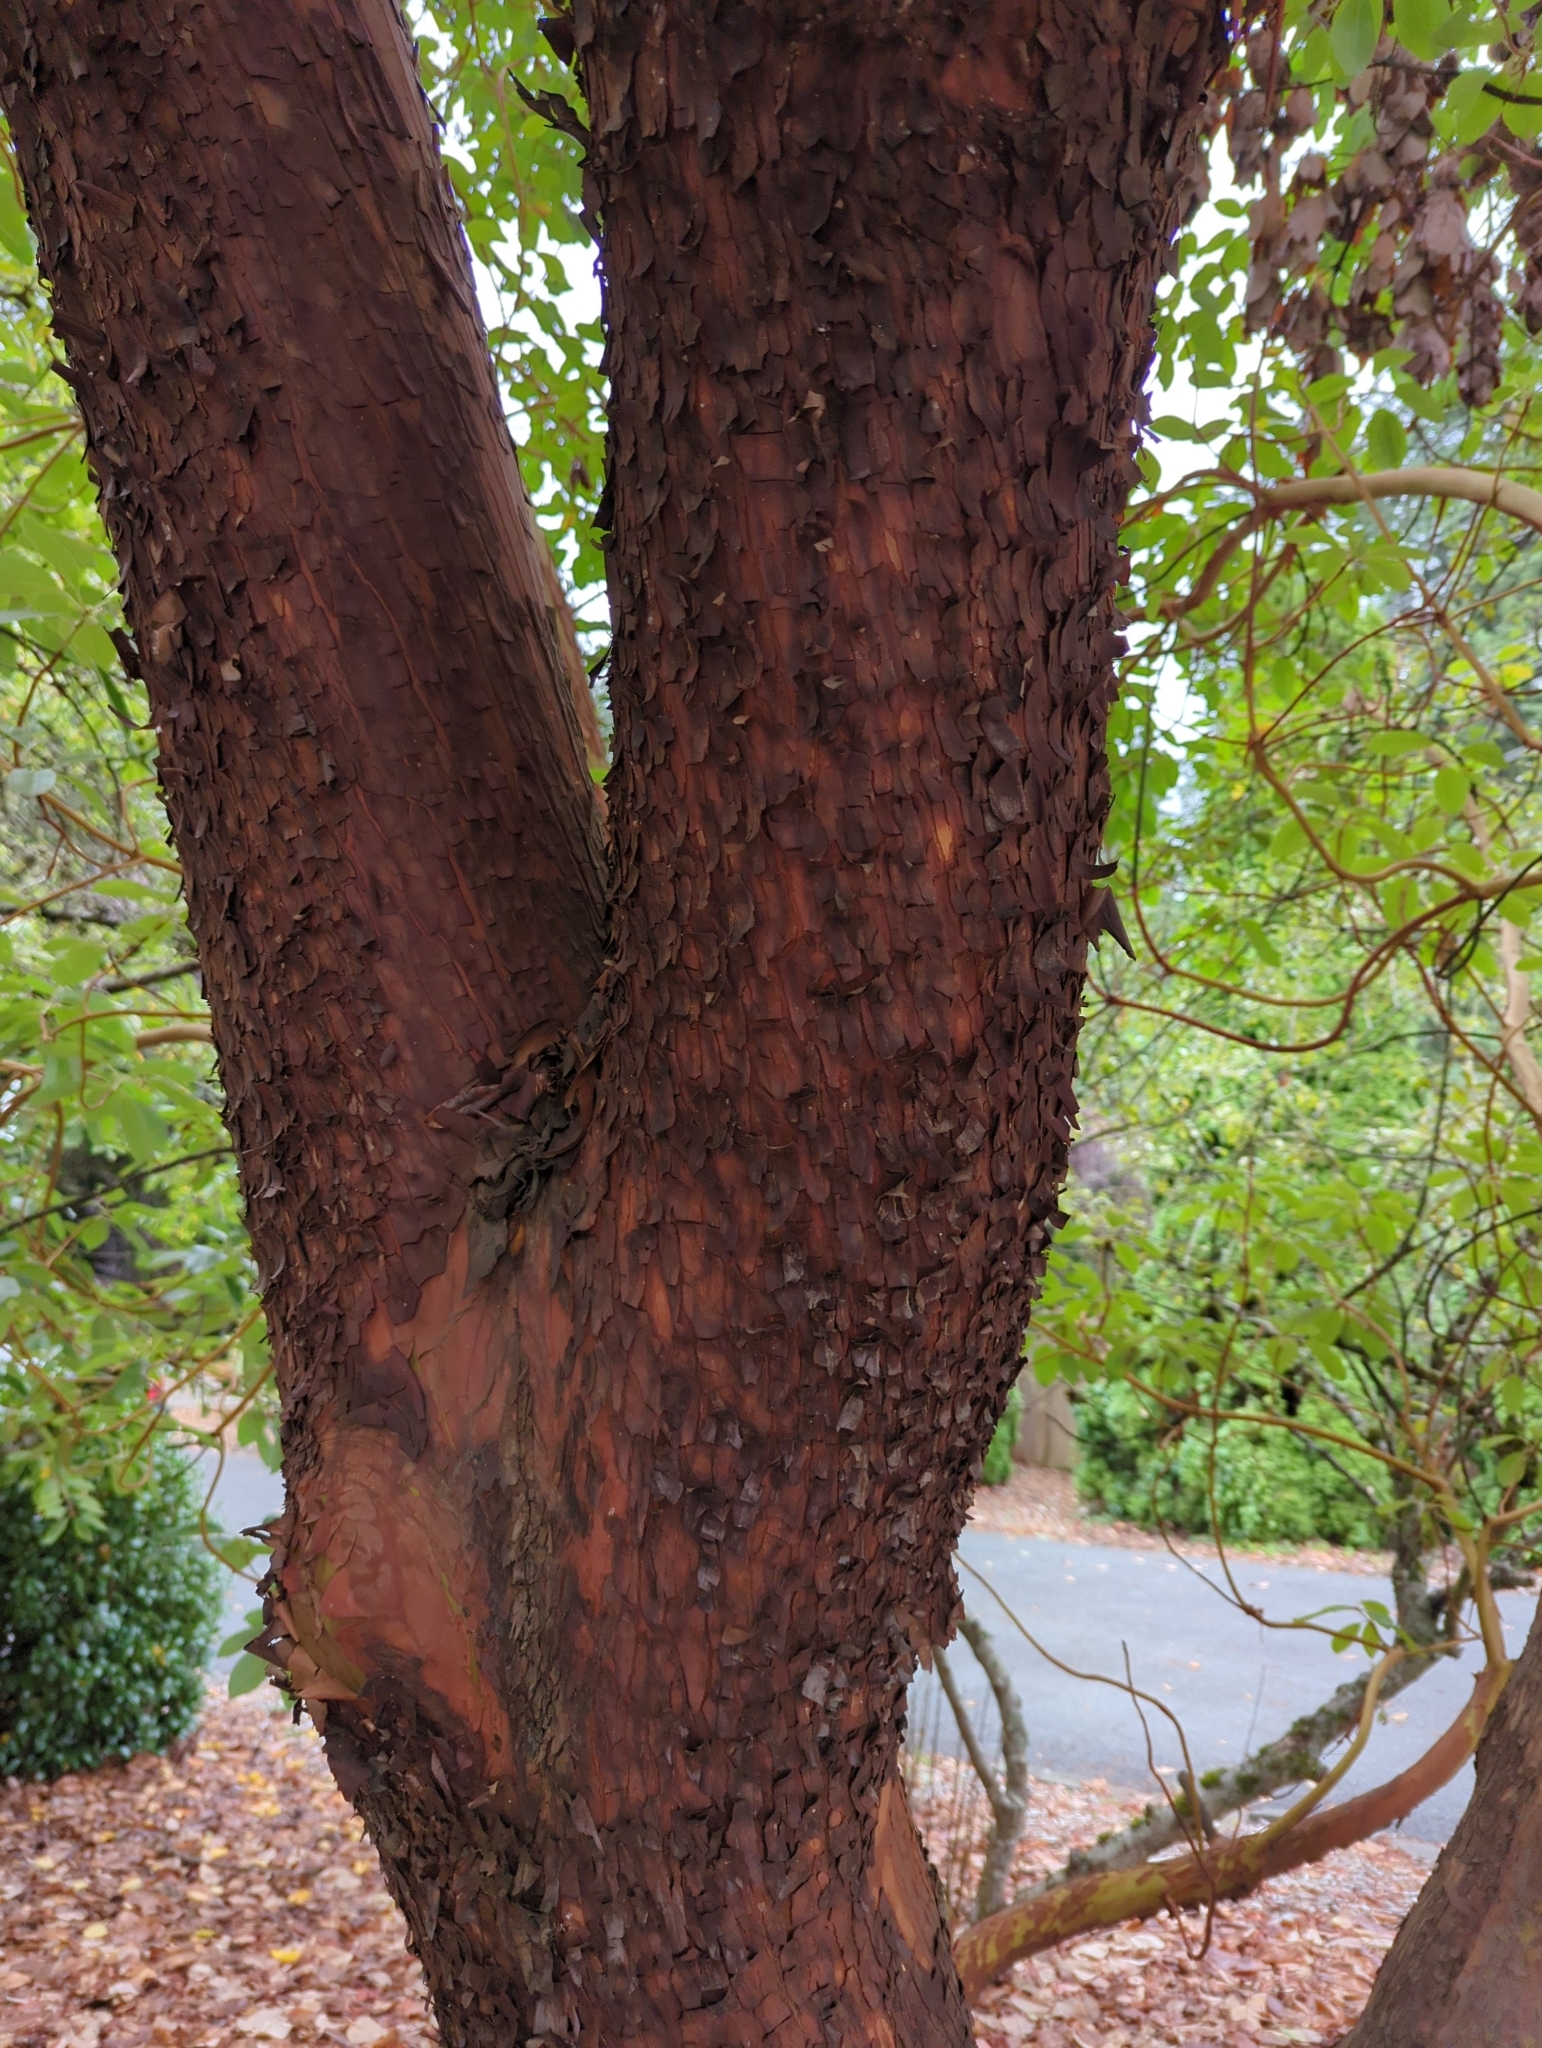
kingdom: Plantae
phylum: Tracheophyta
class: Magnoliopsida
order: Ericales
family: Ericaceae
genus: Arbutus
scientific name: Arbutus menziesii
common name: Pacific madrone
